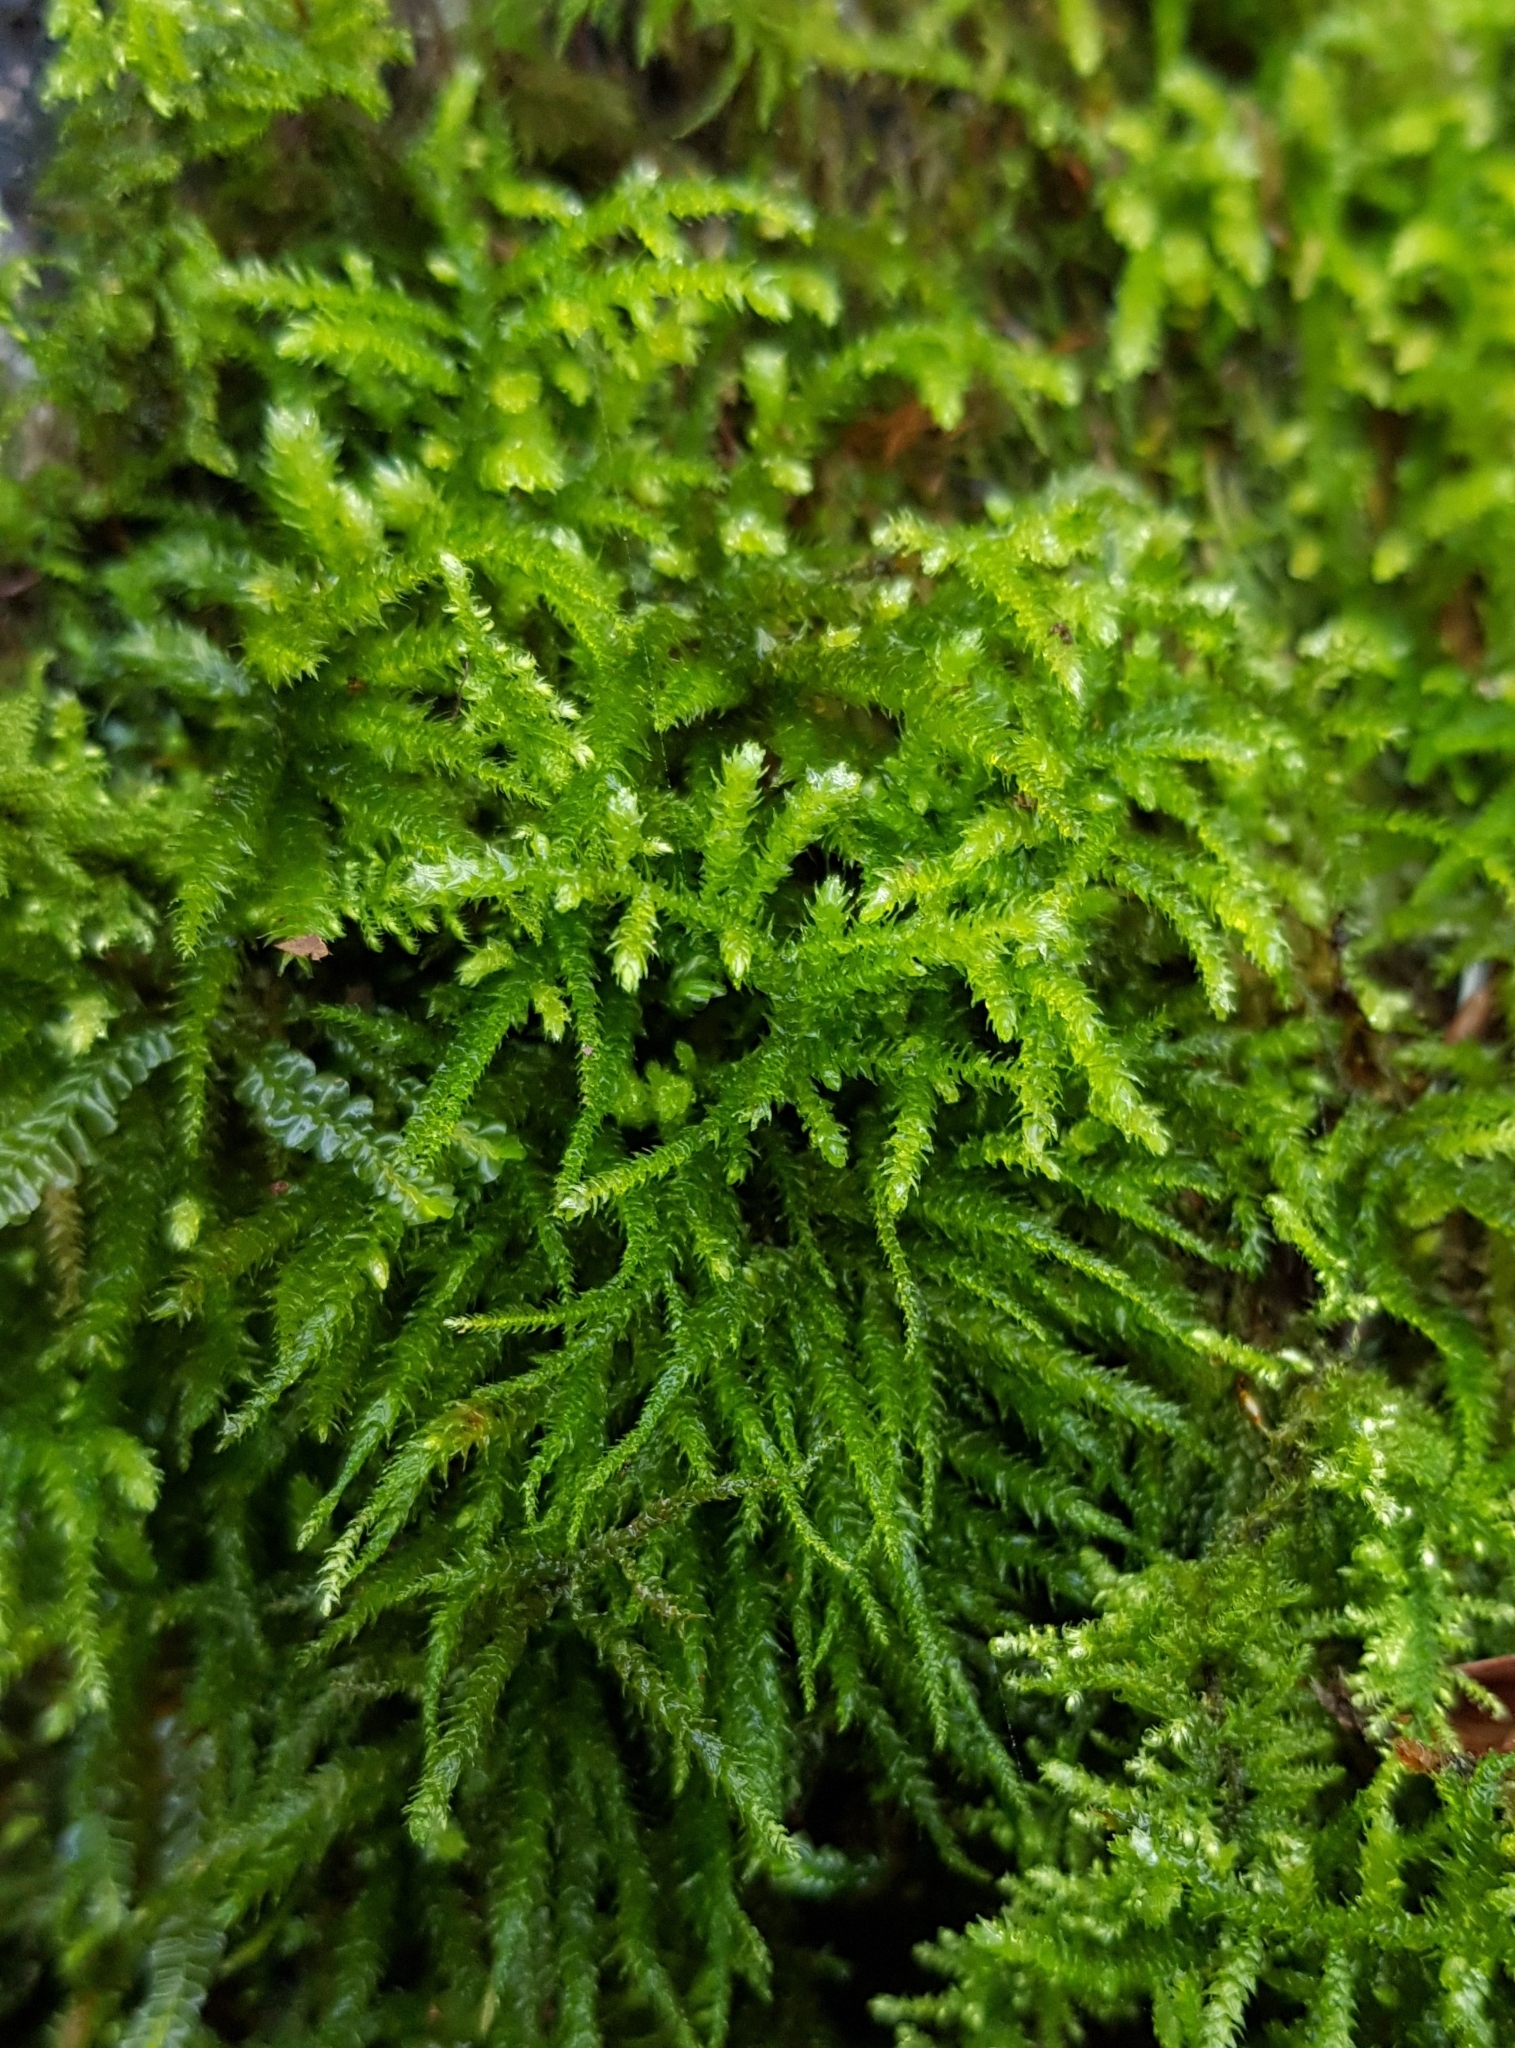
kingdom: Plantae
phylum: Bryophyta
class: Bryopsida
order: Hypnales
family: Brachytheciaceae
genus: Eurhynchium
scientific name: Eurhynchium striatum
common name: Common striated feather-moss
